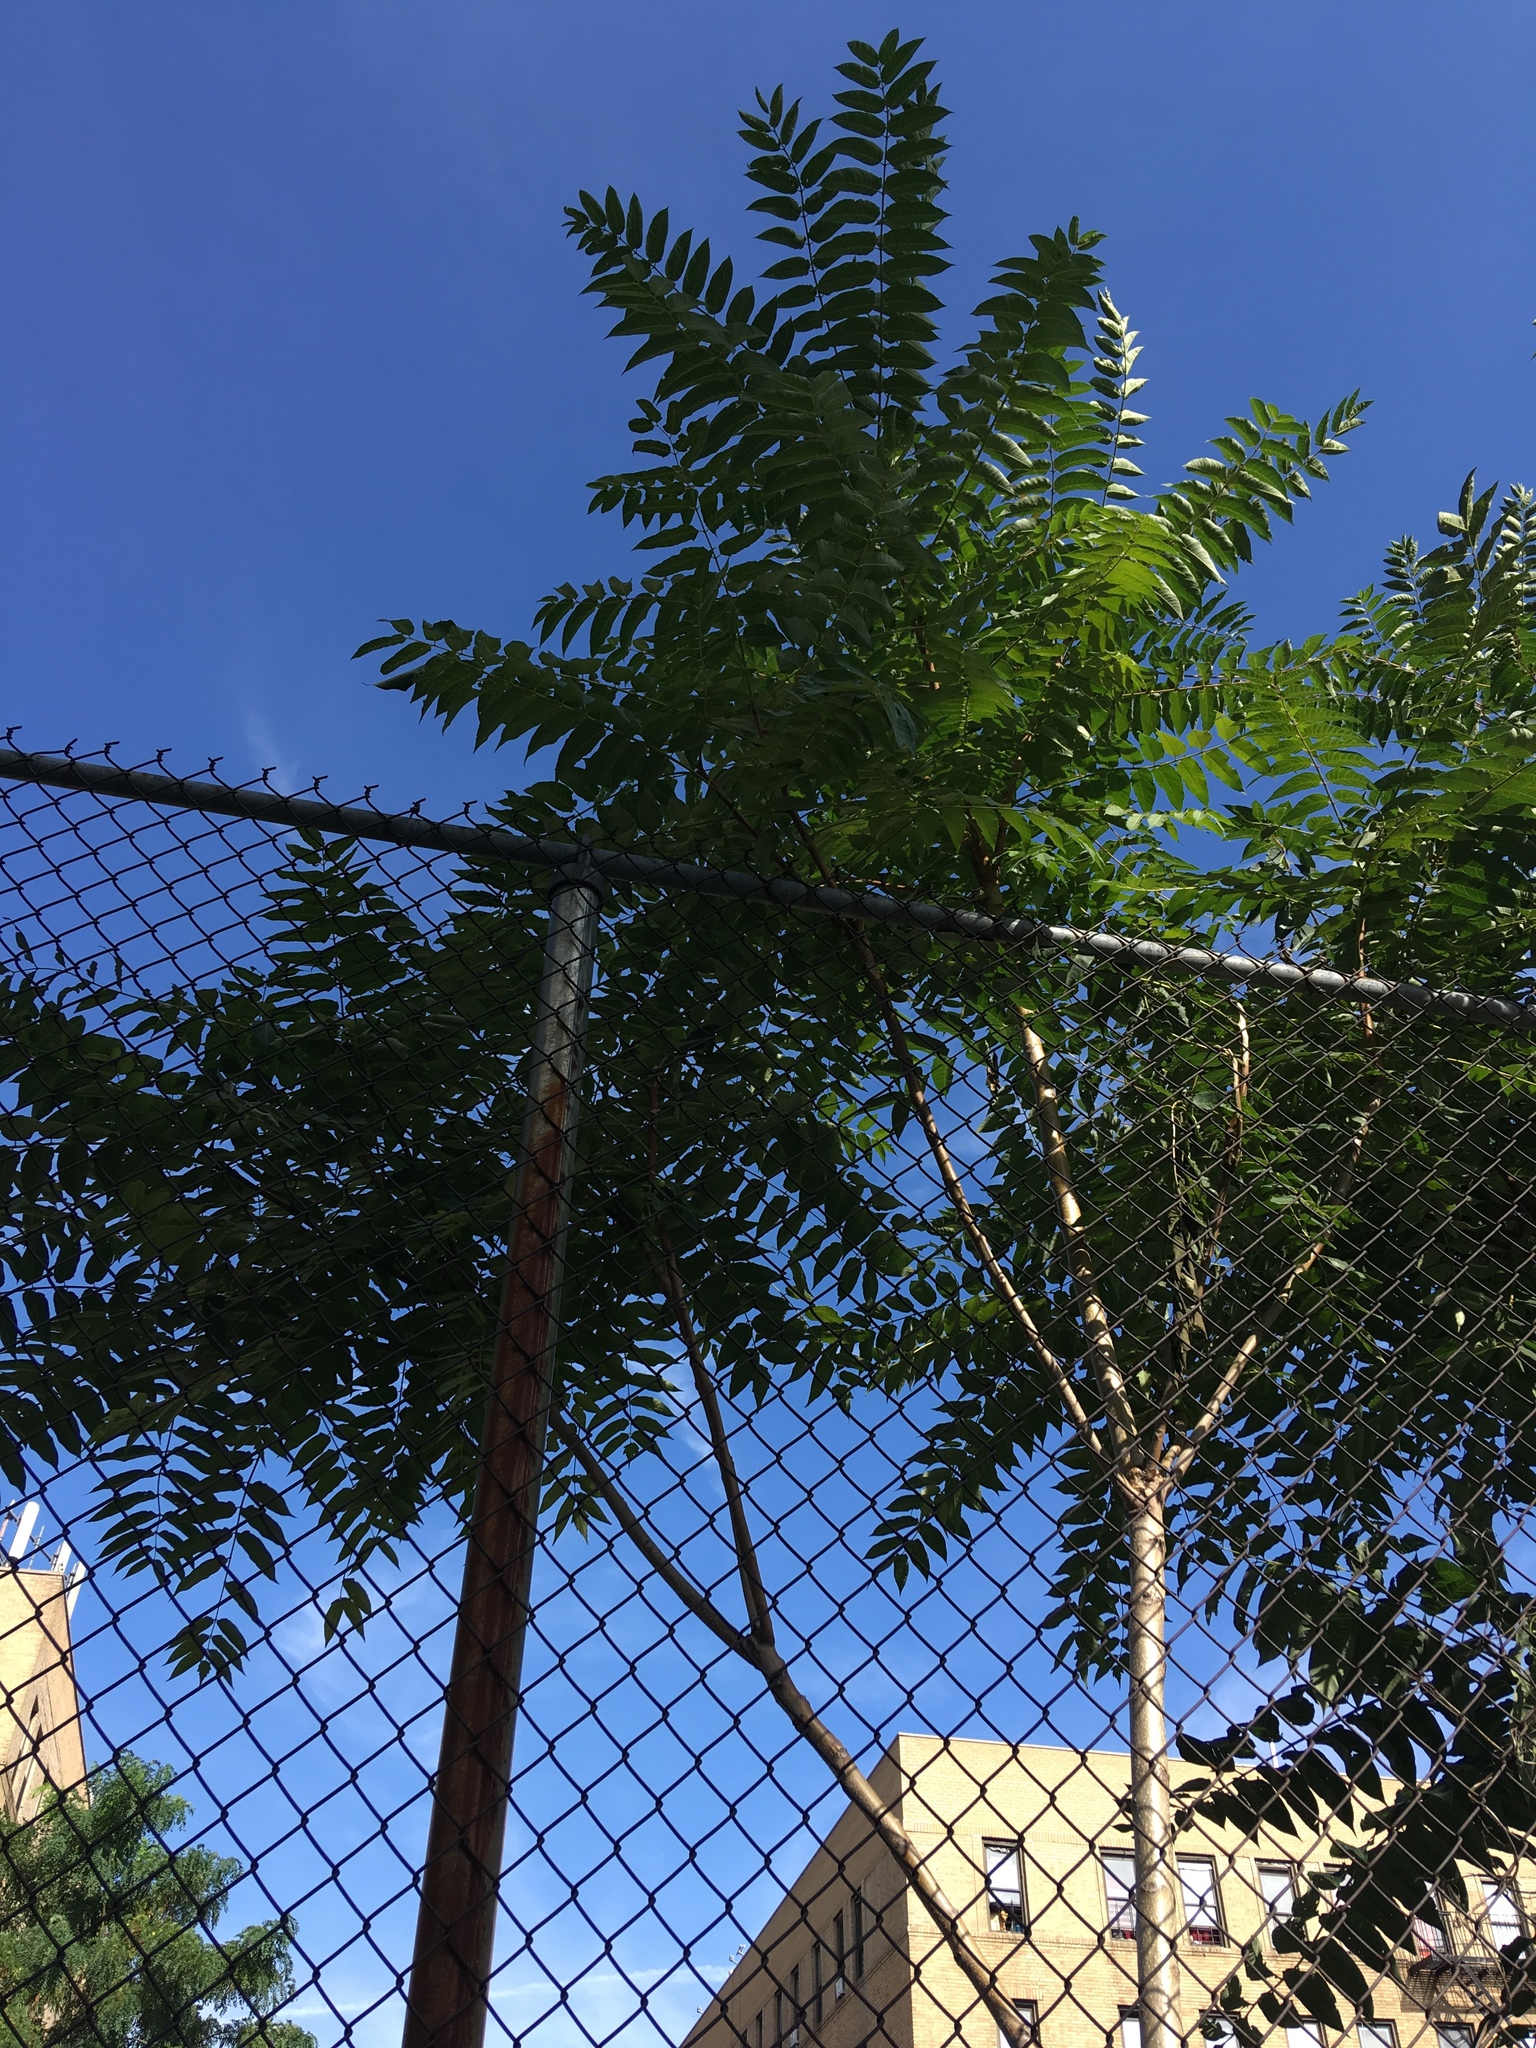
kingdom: Plantae
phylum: Tracheophyta
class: Magnoliopsida
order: Sapindales
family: Simaroubaceae
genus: Ailanthus
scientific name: Ailanthus altissima
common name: Tree-of-heaven
